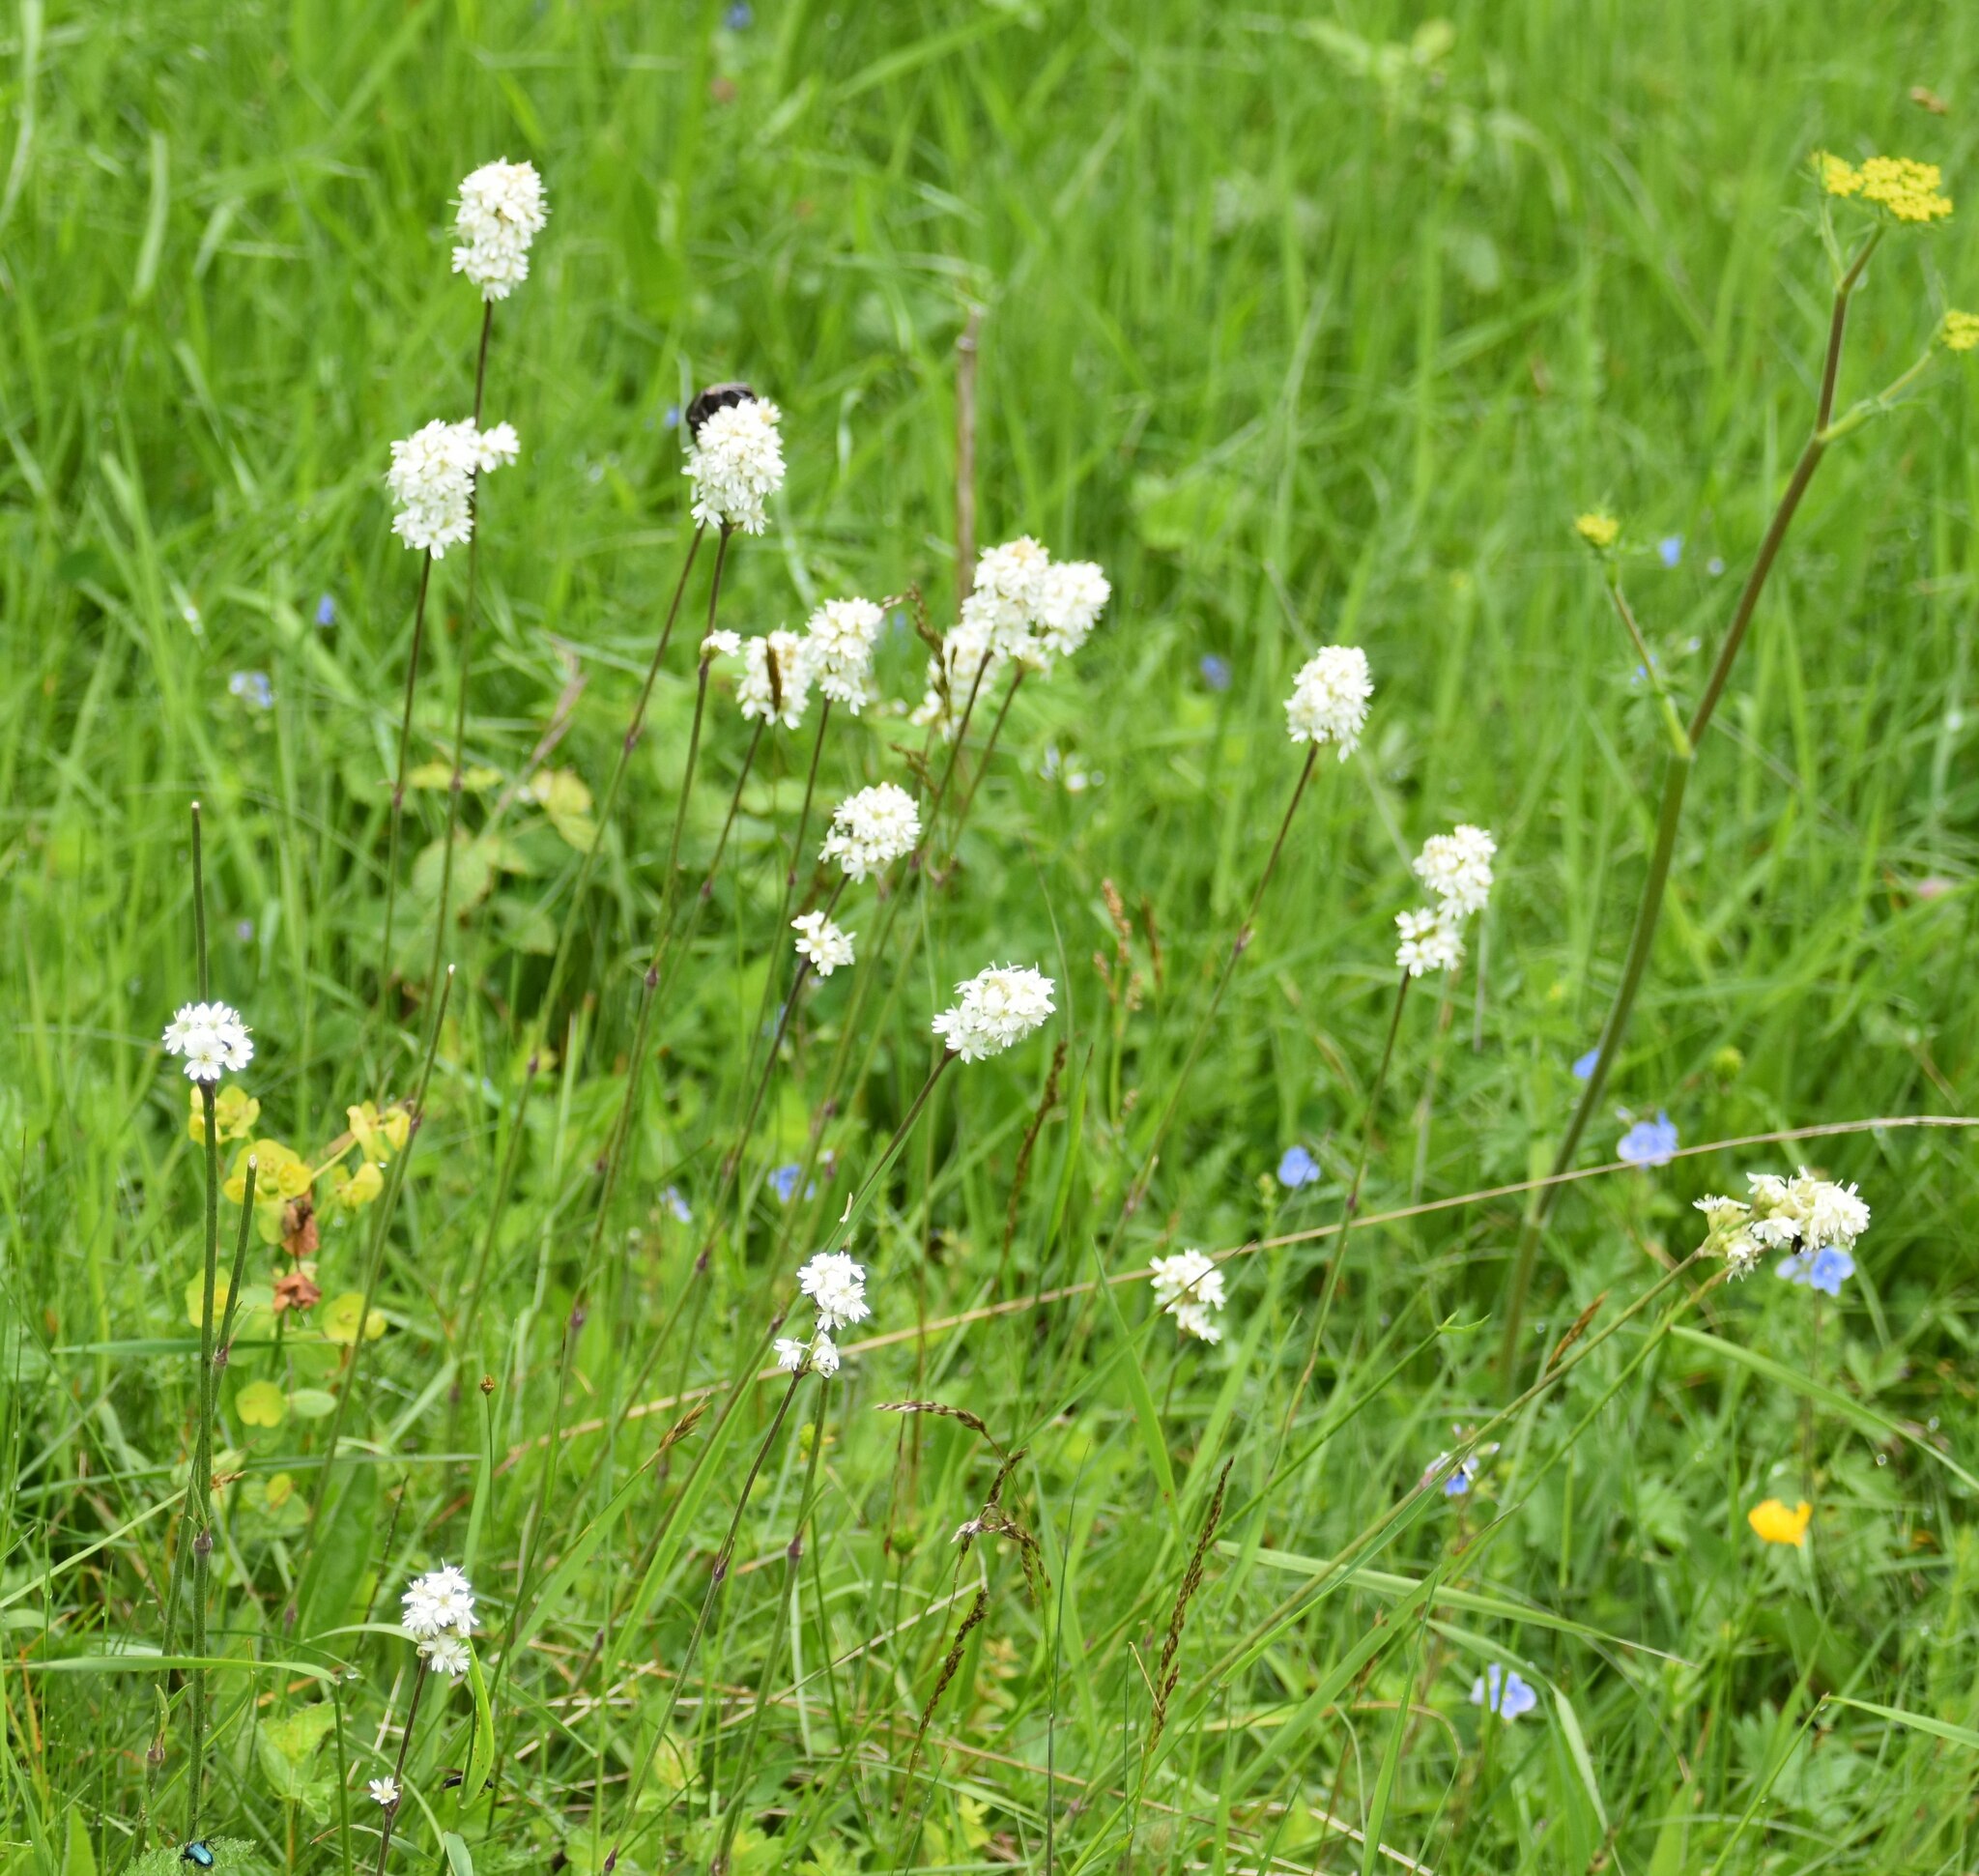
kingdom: Plantae
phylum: Tracheophyta
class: Magnoliopsida
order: Caryophyllales
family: Caryophyllaceae
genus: Silene
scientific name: Silene roemeri
